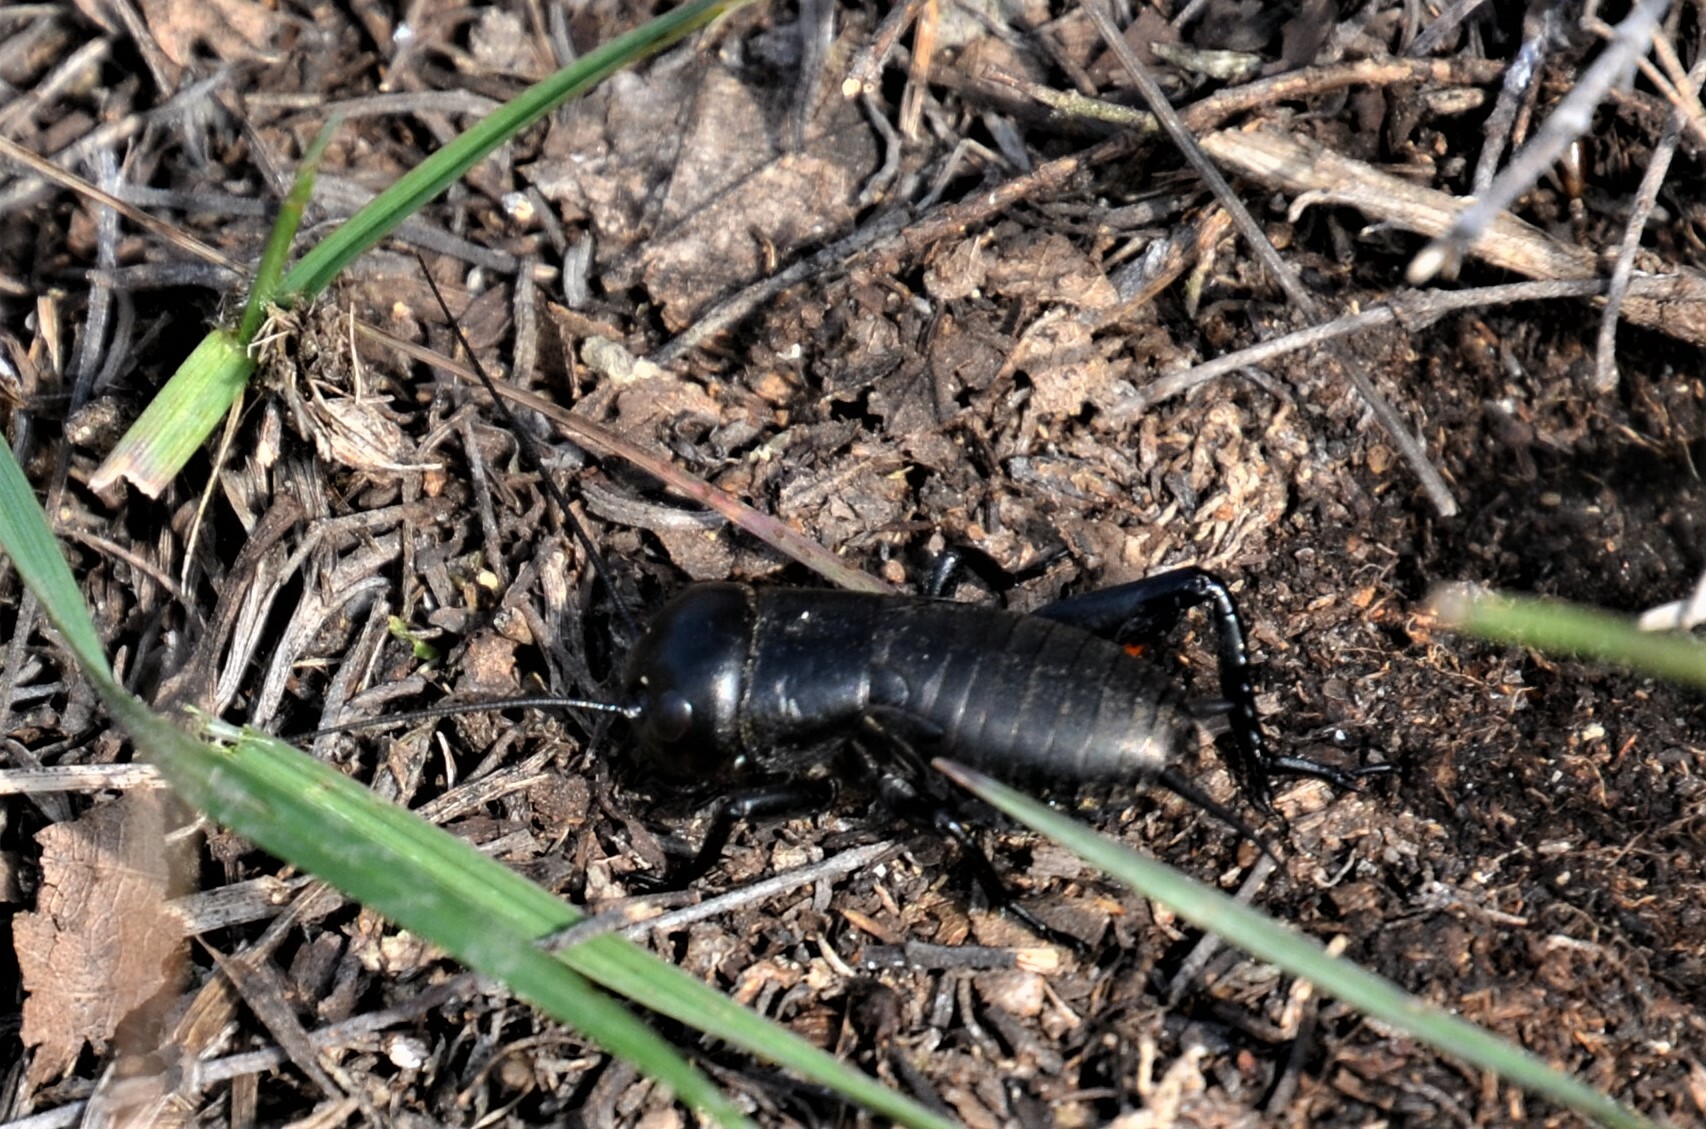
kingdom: Animalia
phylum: Arthropoda
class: Insecta
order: Orthoptera
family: Gryllidae
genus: Gryllus
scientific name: Gryllus campestris
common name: Field cricket
